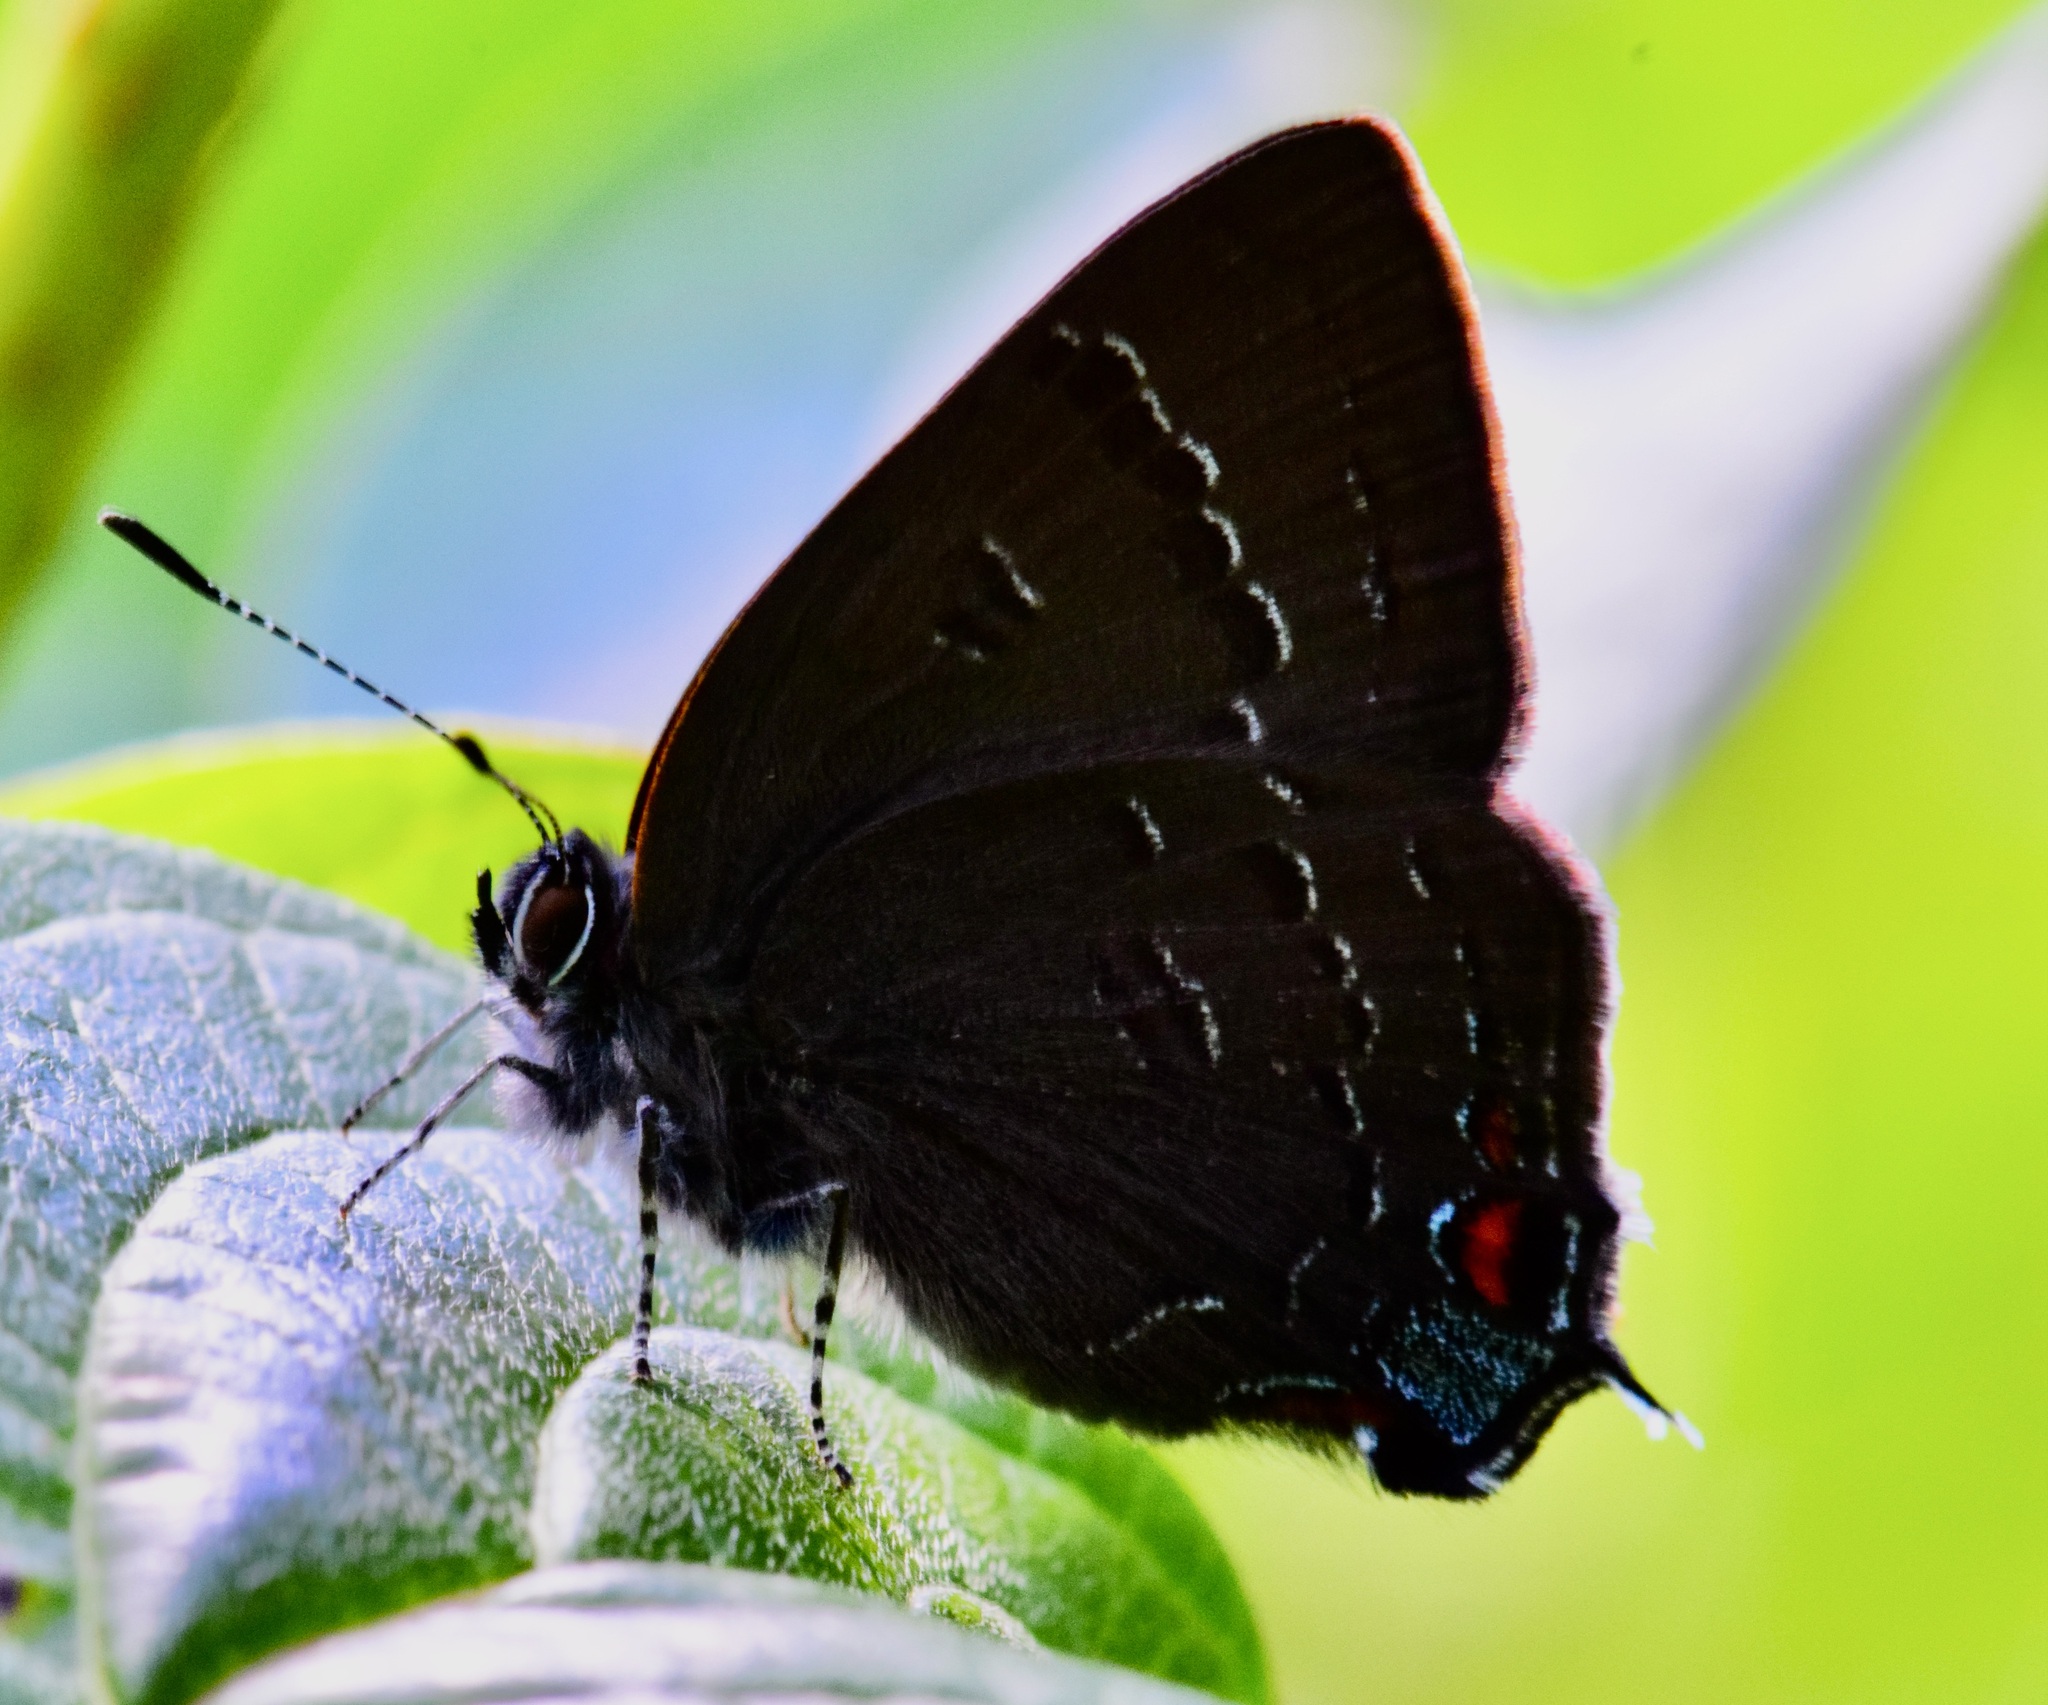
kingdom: Animalia
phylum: Arthropoda
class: Insecta
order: Lepidoptera
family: Lycaenidae
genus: Satyrium
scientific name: Satyrium calanus
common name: Banded hairstreak
